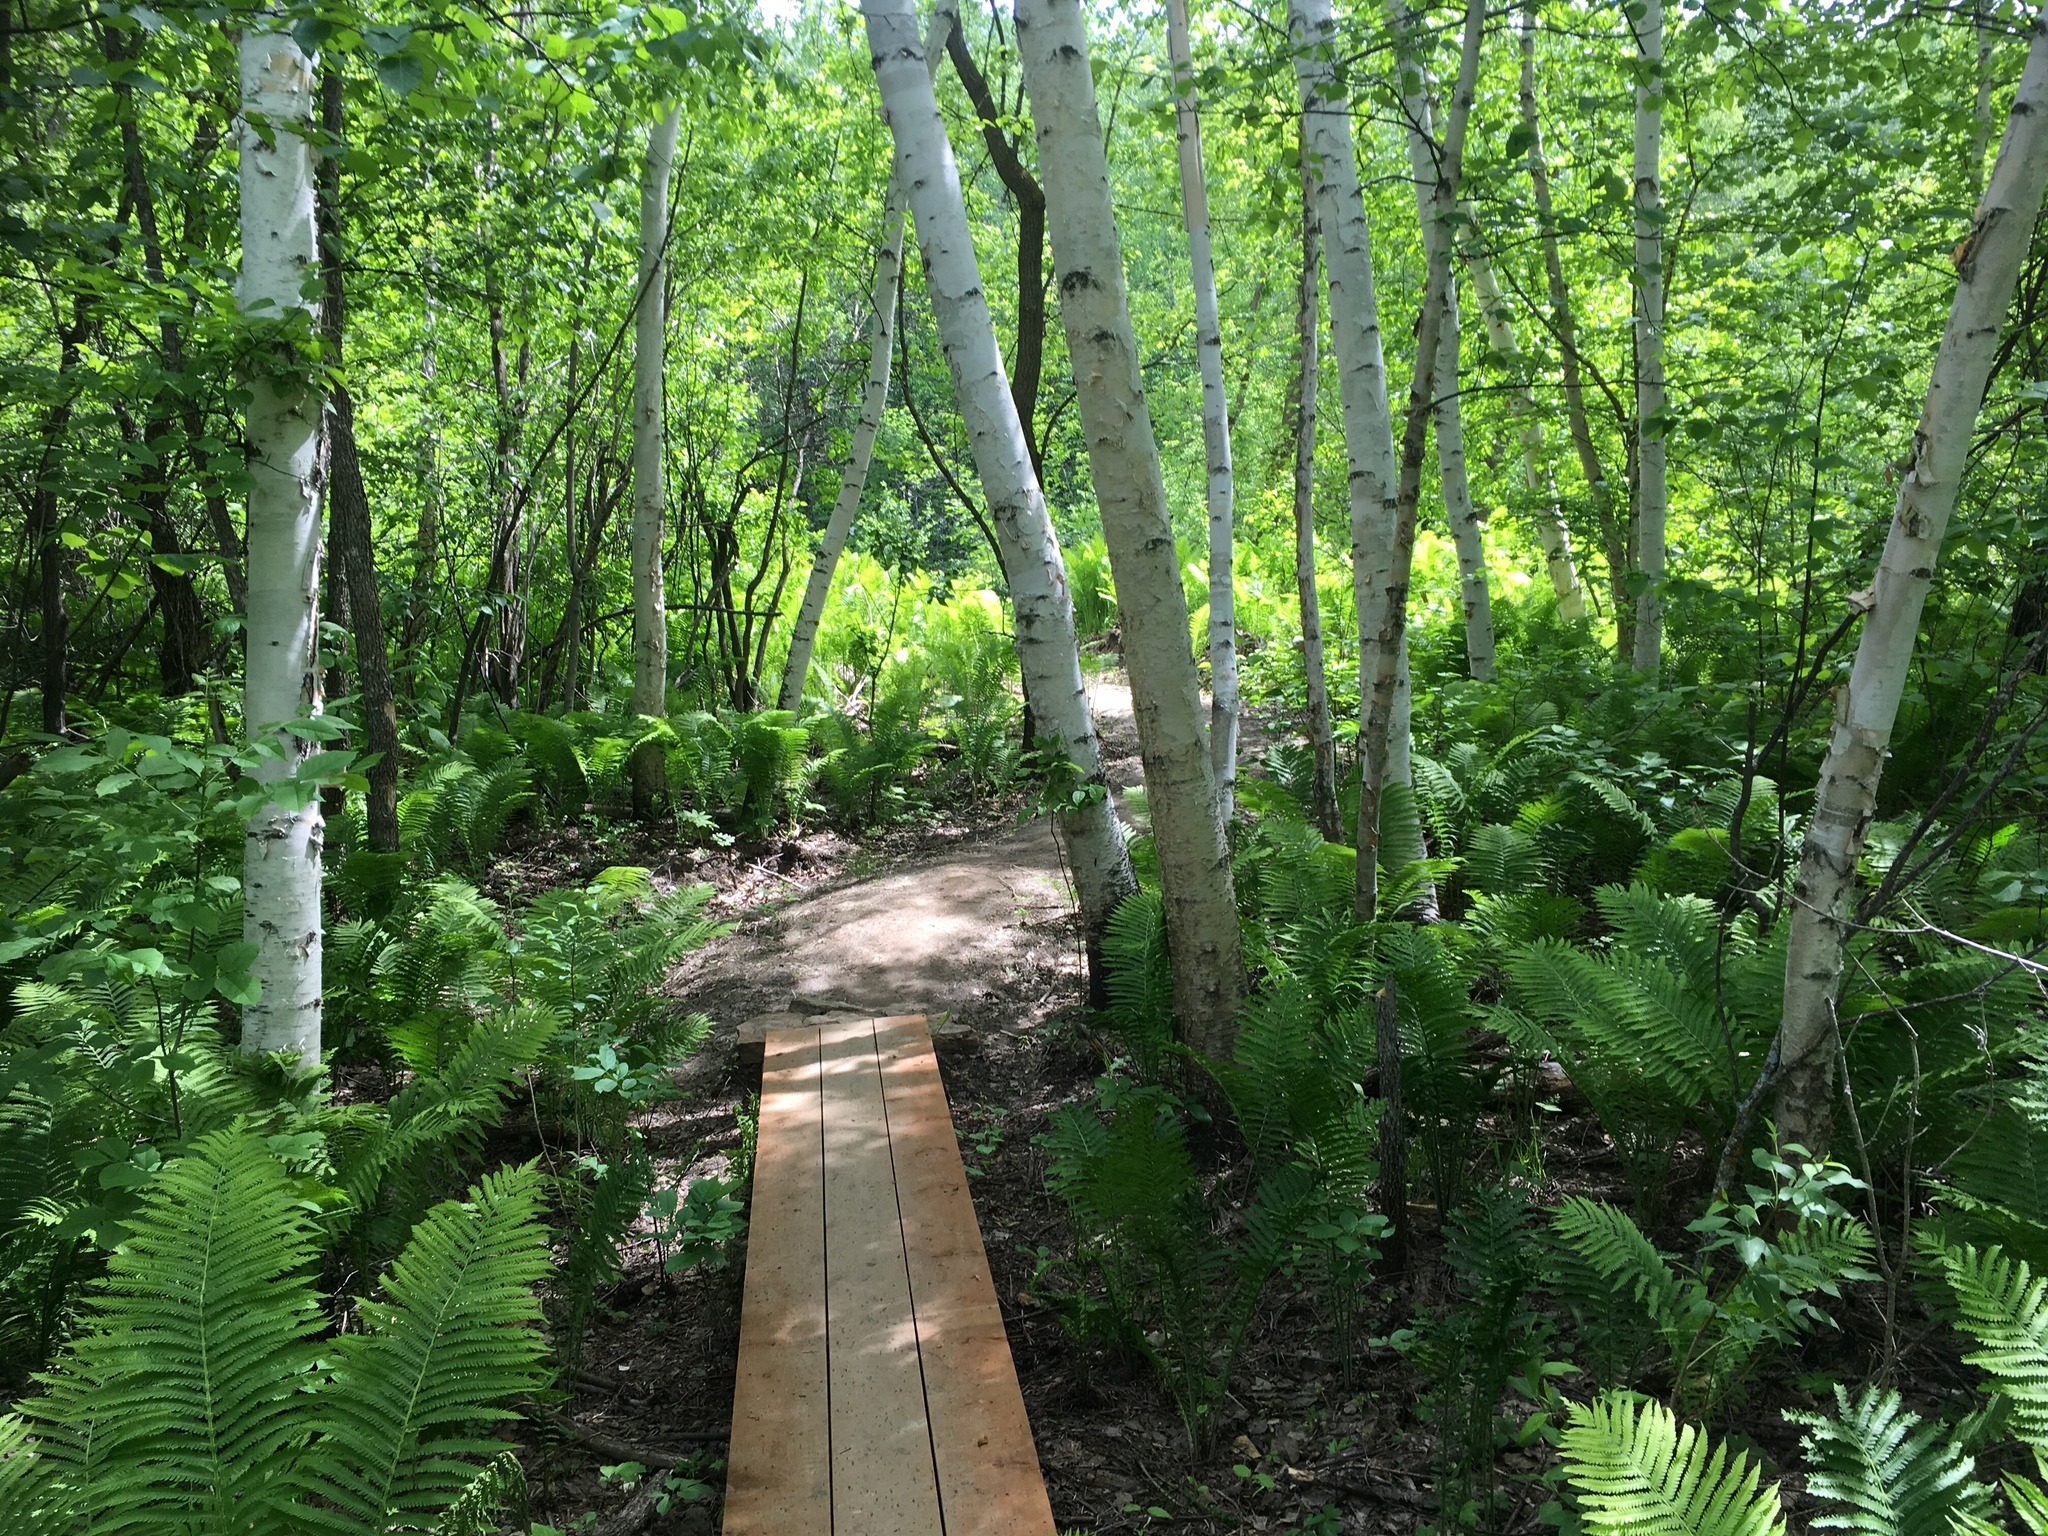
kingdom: Plantae
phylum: Tracheophyta
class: Polypodiopsida
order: Polypodiales
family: Onocleaceae
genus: Matteuccia
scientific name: Matteuccia struthiopteris
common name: Ostrich fern
